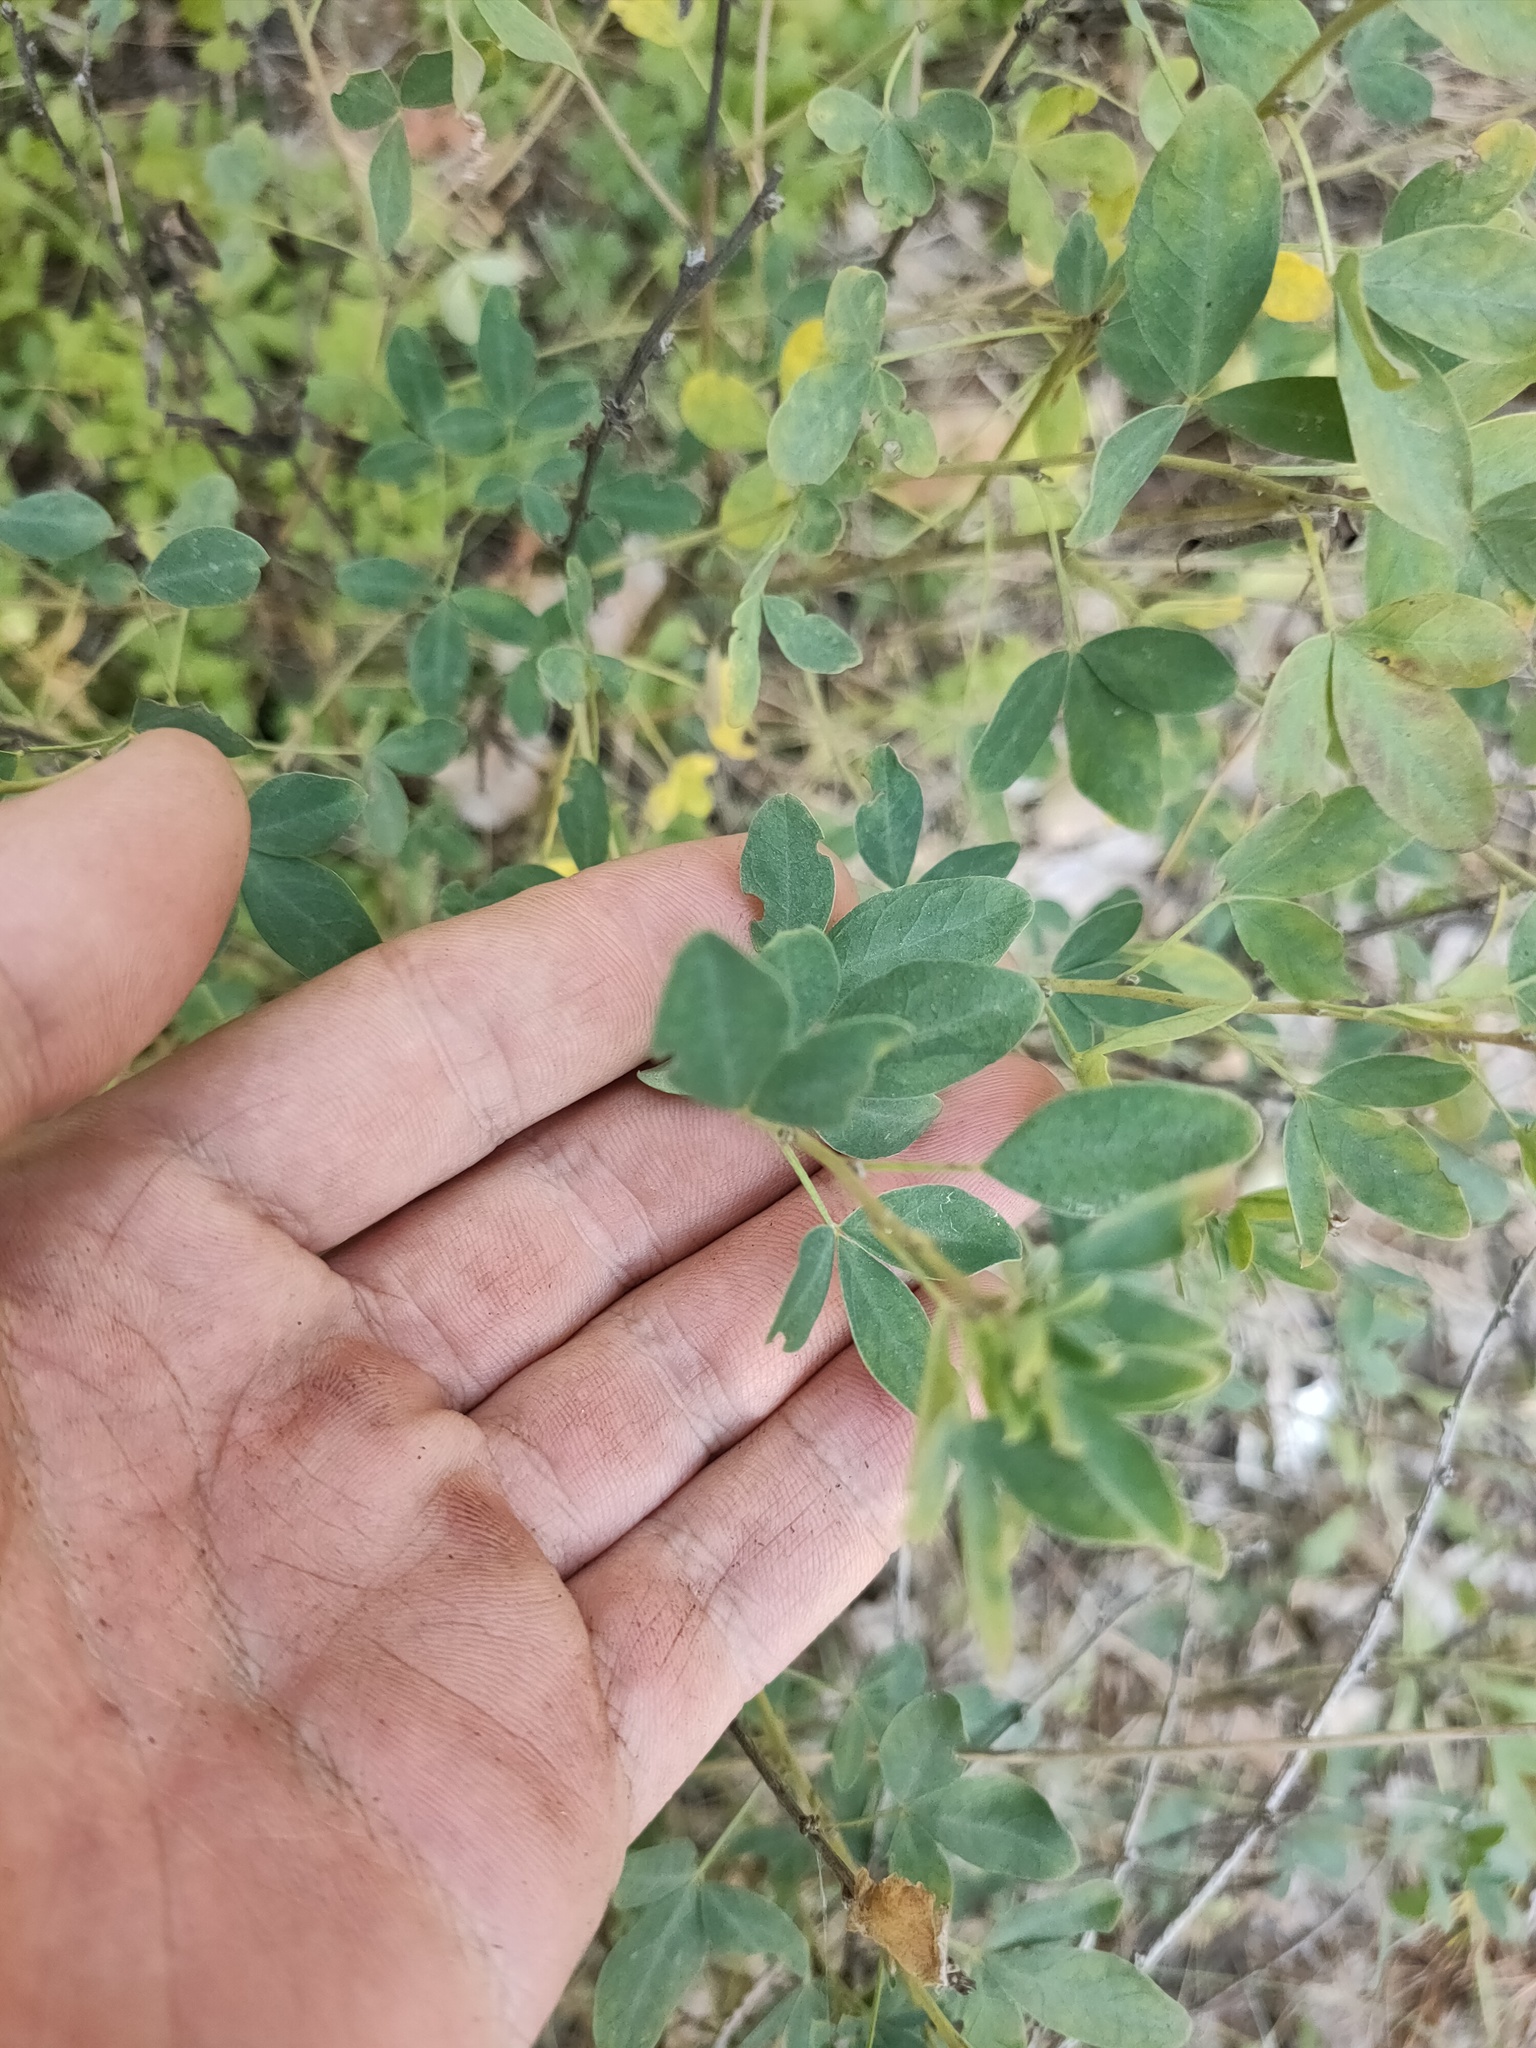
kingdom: Plantae
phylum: Tracheophyta
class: Magnoliopsida
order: Fabales
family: Fabaceae
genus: Chamaecytisus
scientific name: Chamaecytisus ruthenicus
